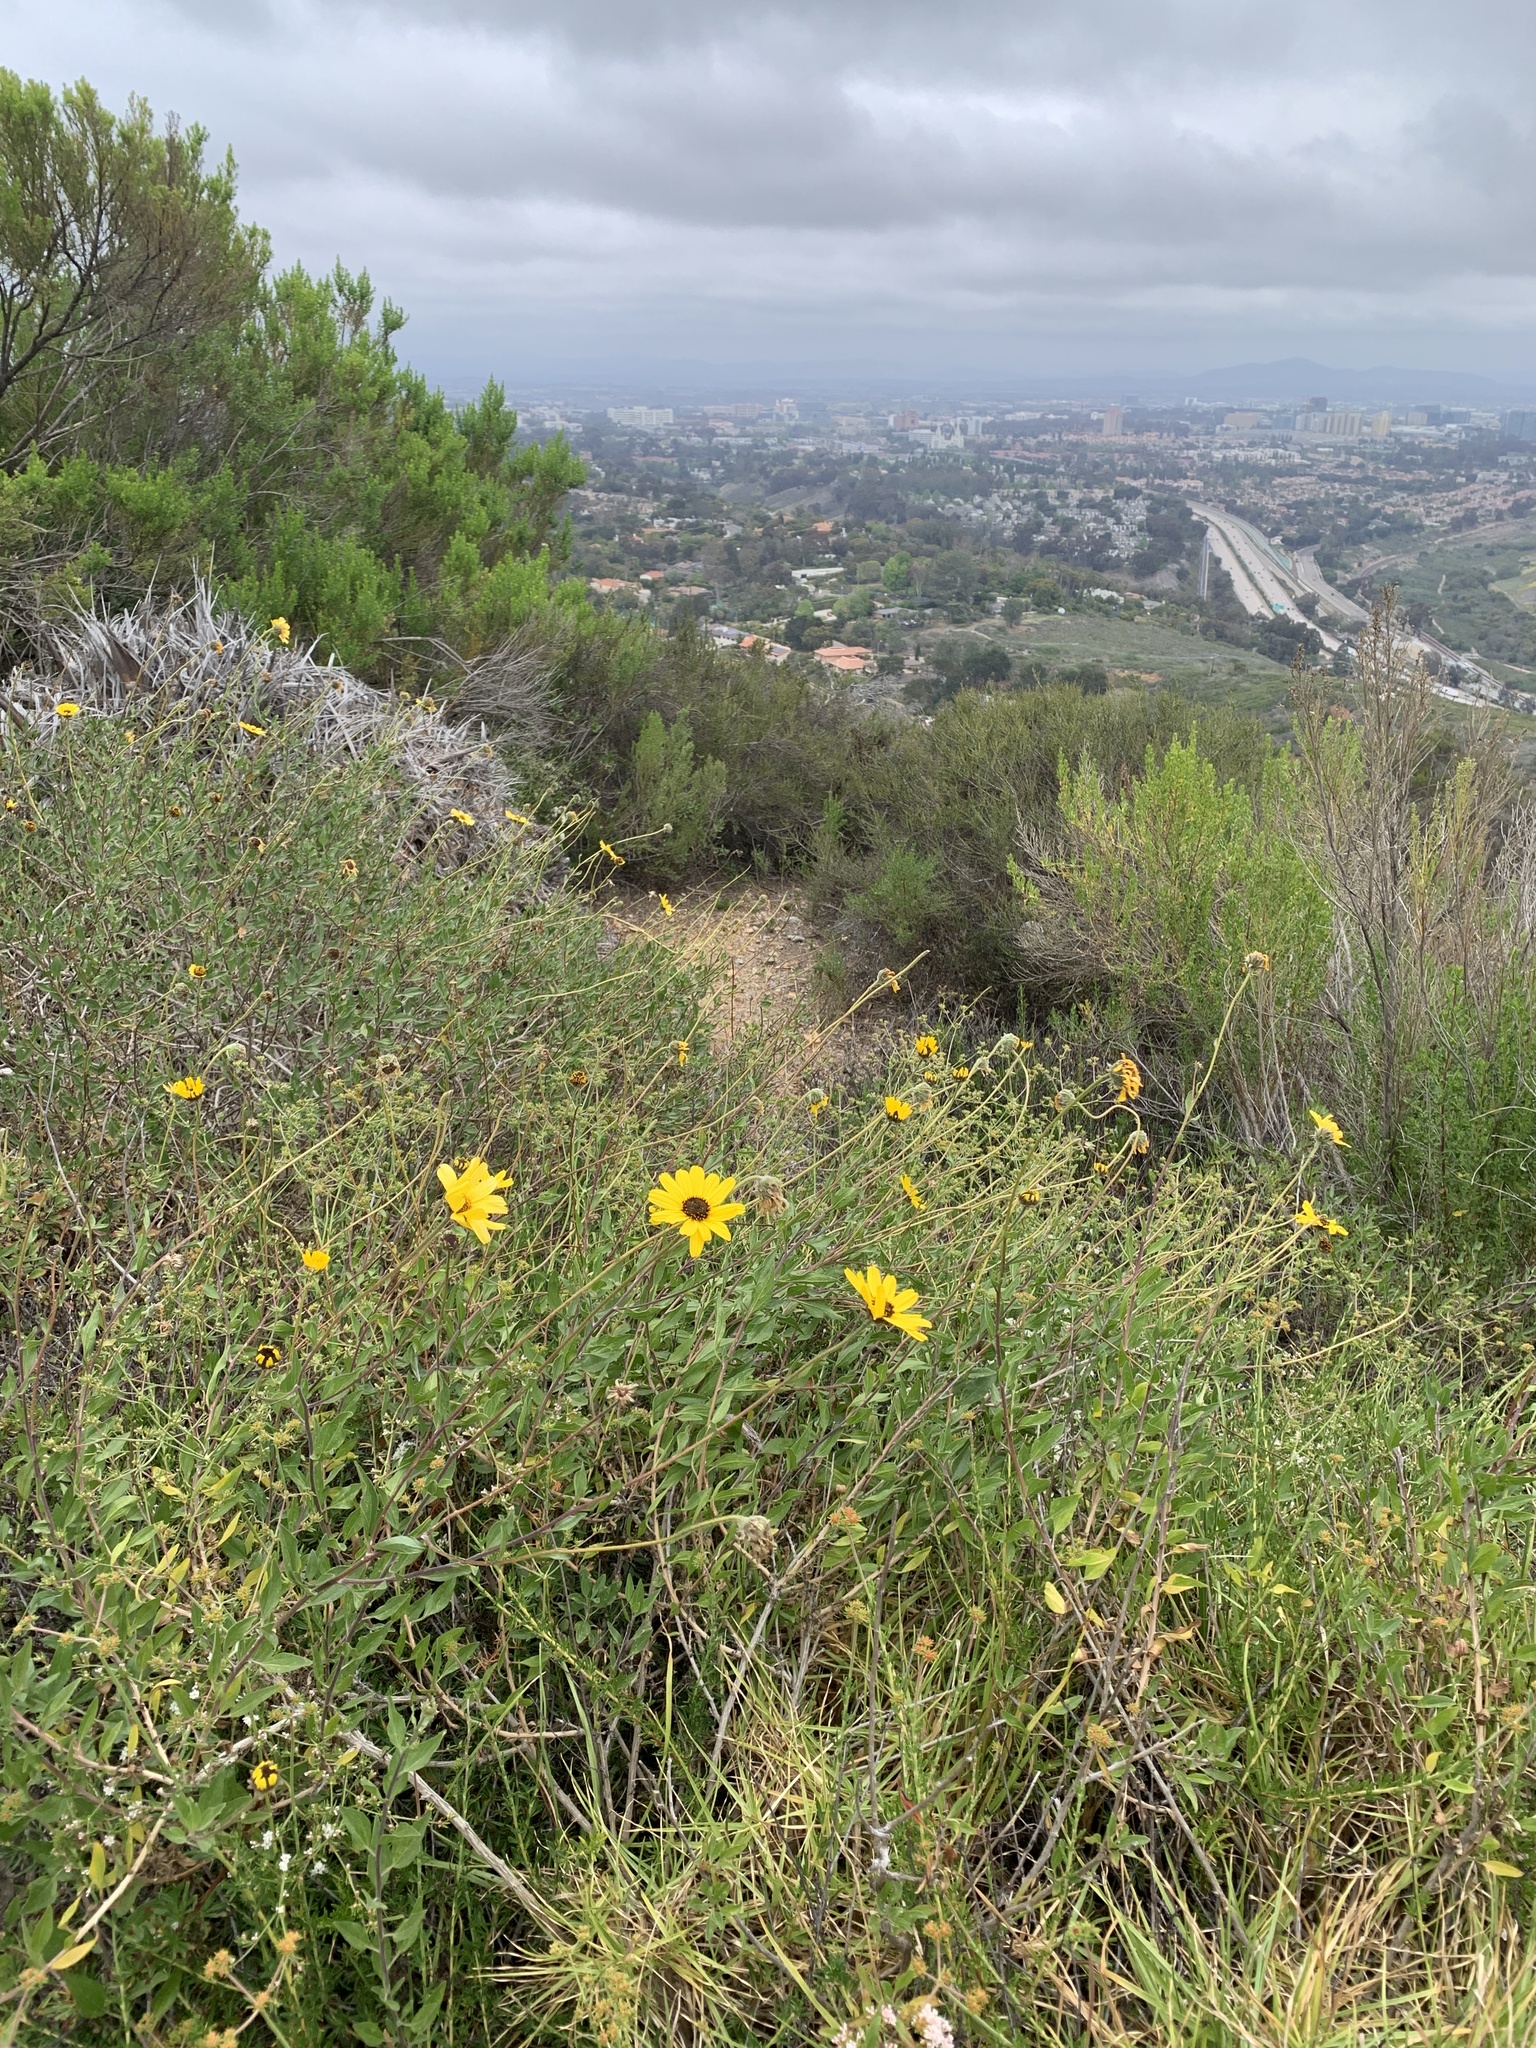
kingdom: Plantae
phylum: Tracheophyta
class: Magnoliopsida
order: Asterales
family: Asteraceae
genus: Encelia
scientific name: Encelia californica
